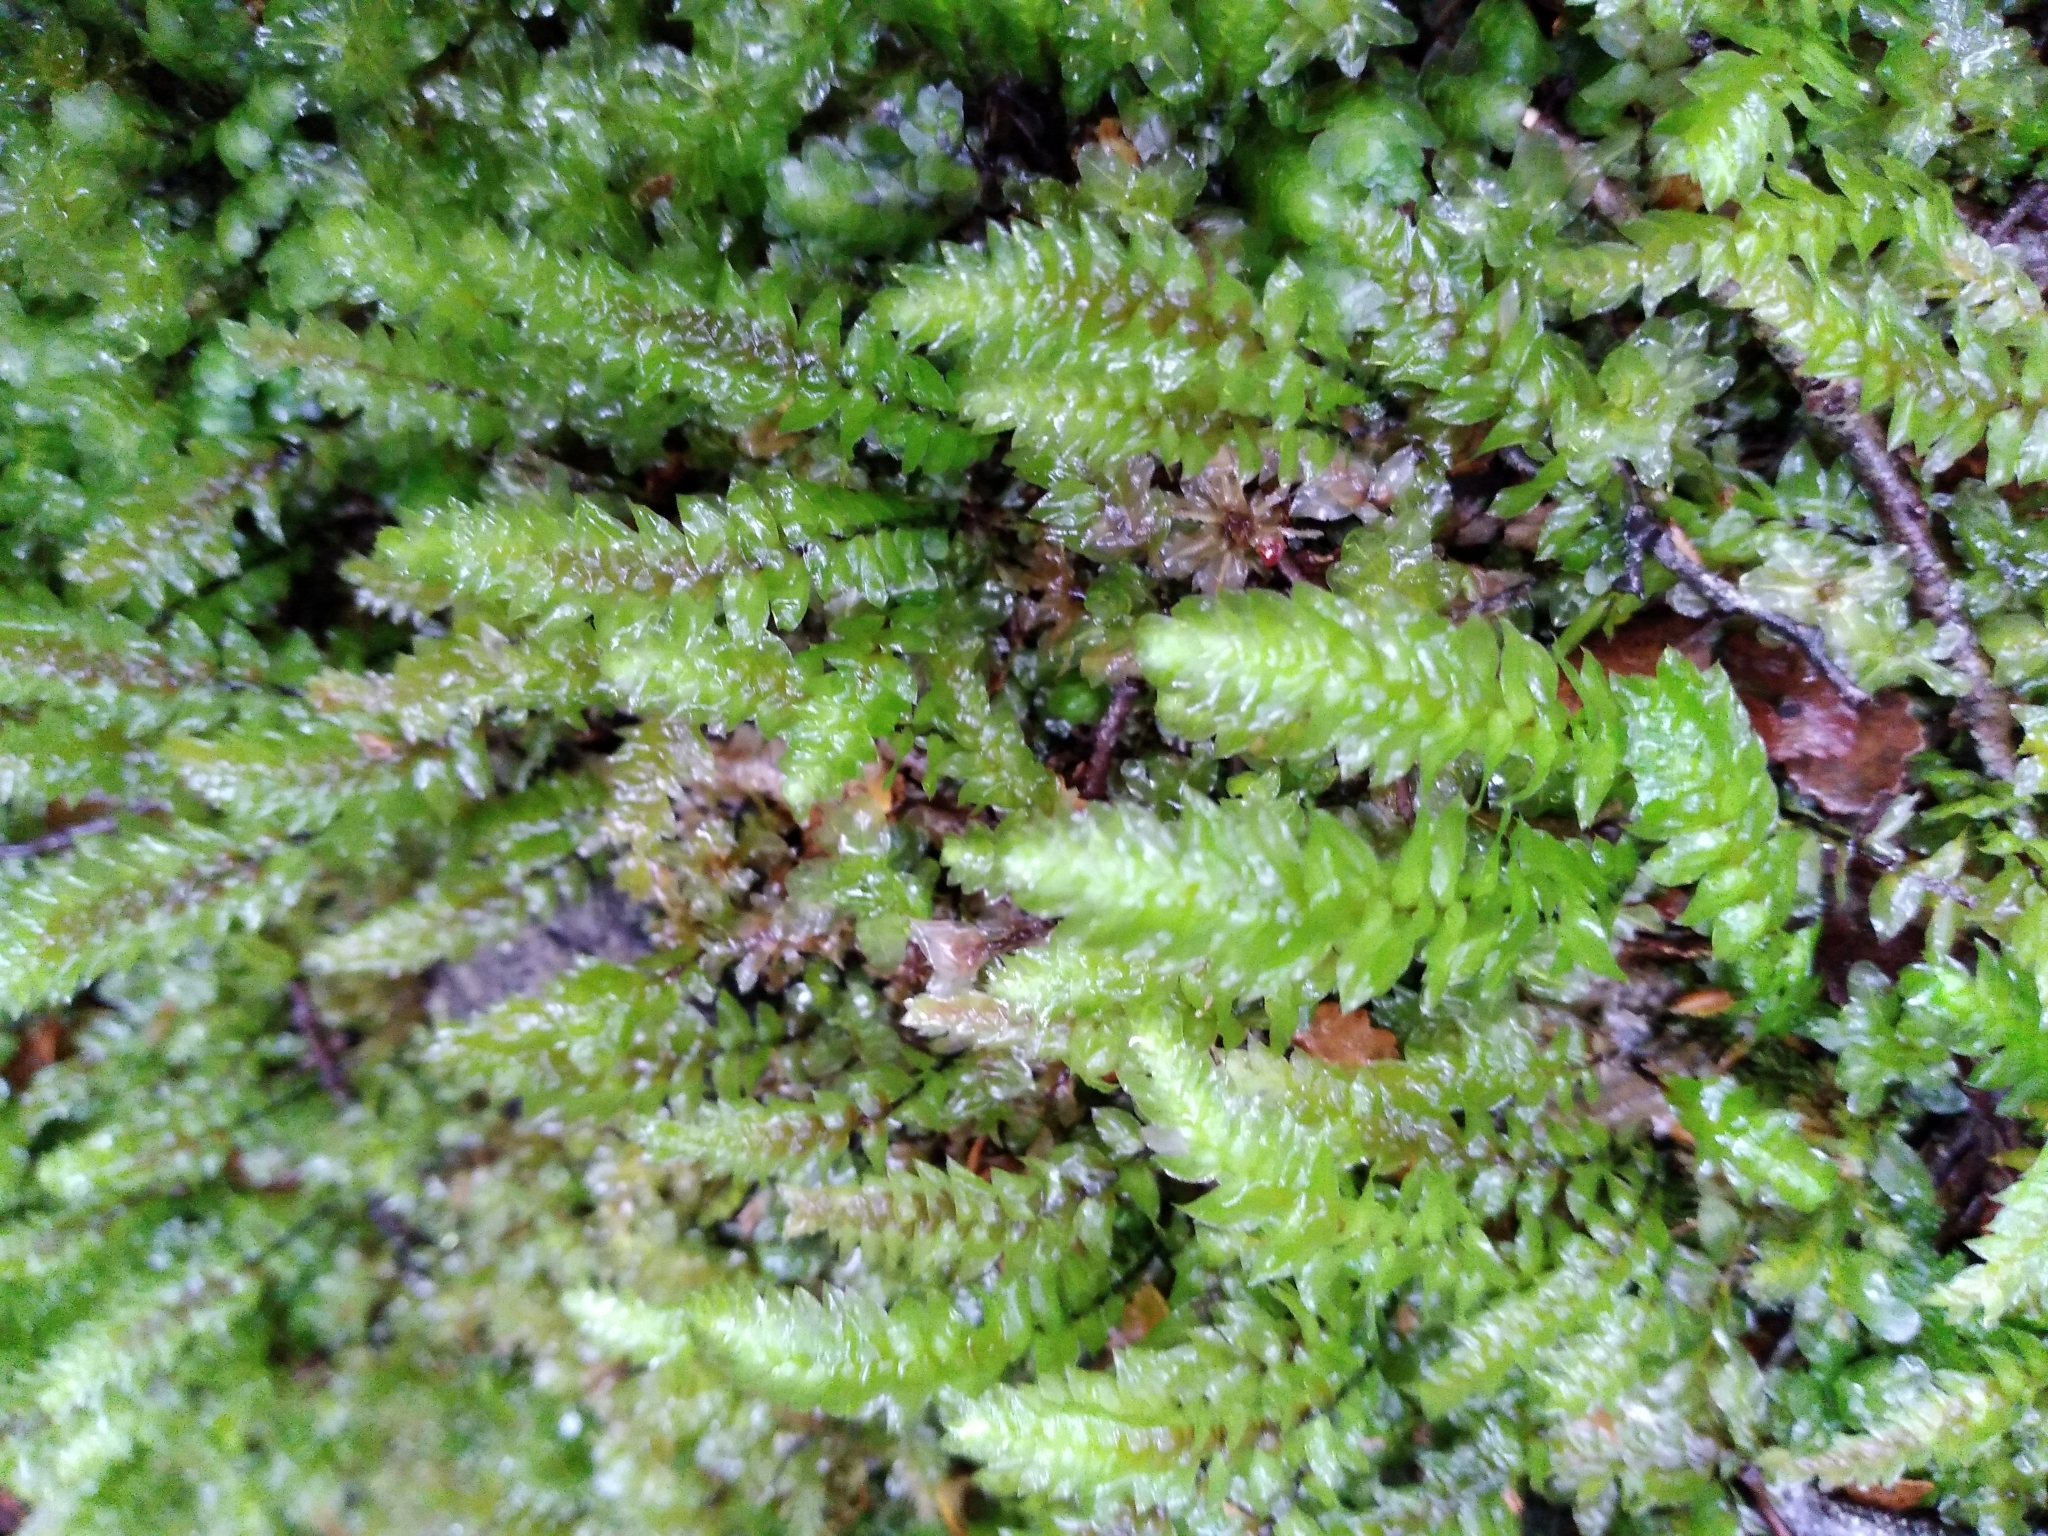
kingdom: Plantae
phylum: Bryophyta
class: Bryopsida
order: Hypopterygiales
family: Hypopterygiaceae
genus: Cyathophorum
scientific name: Cyathophorum bulbosum
